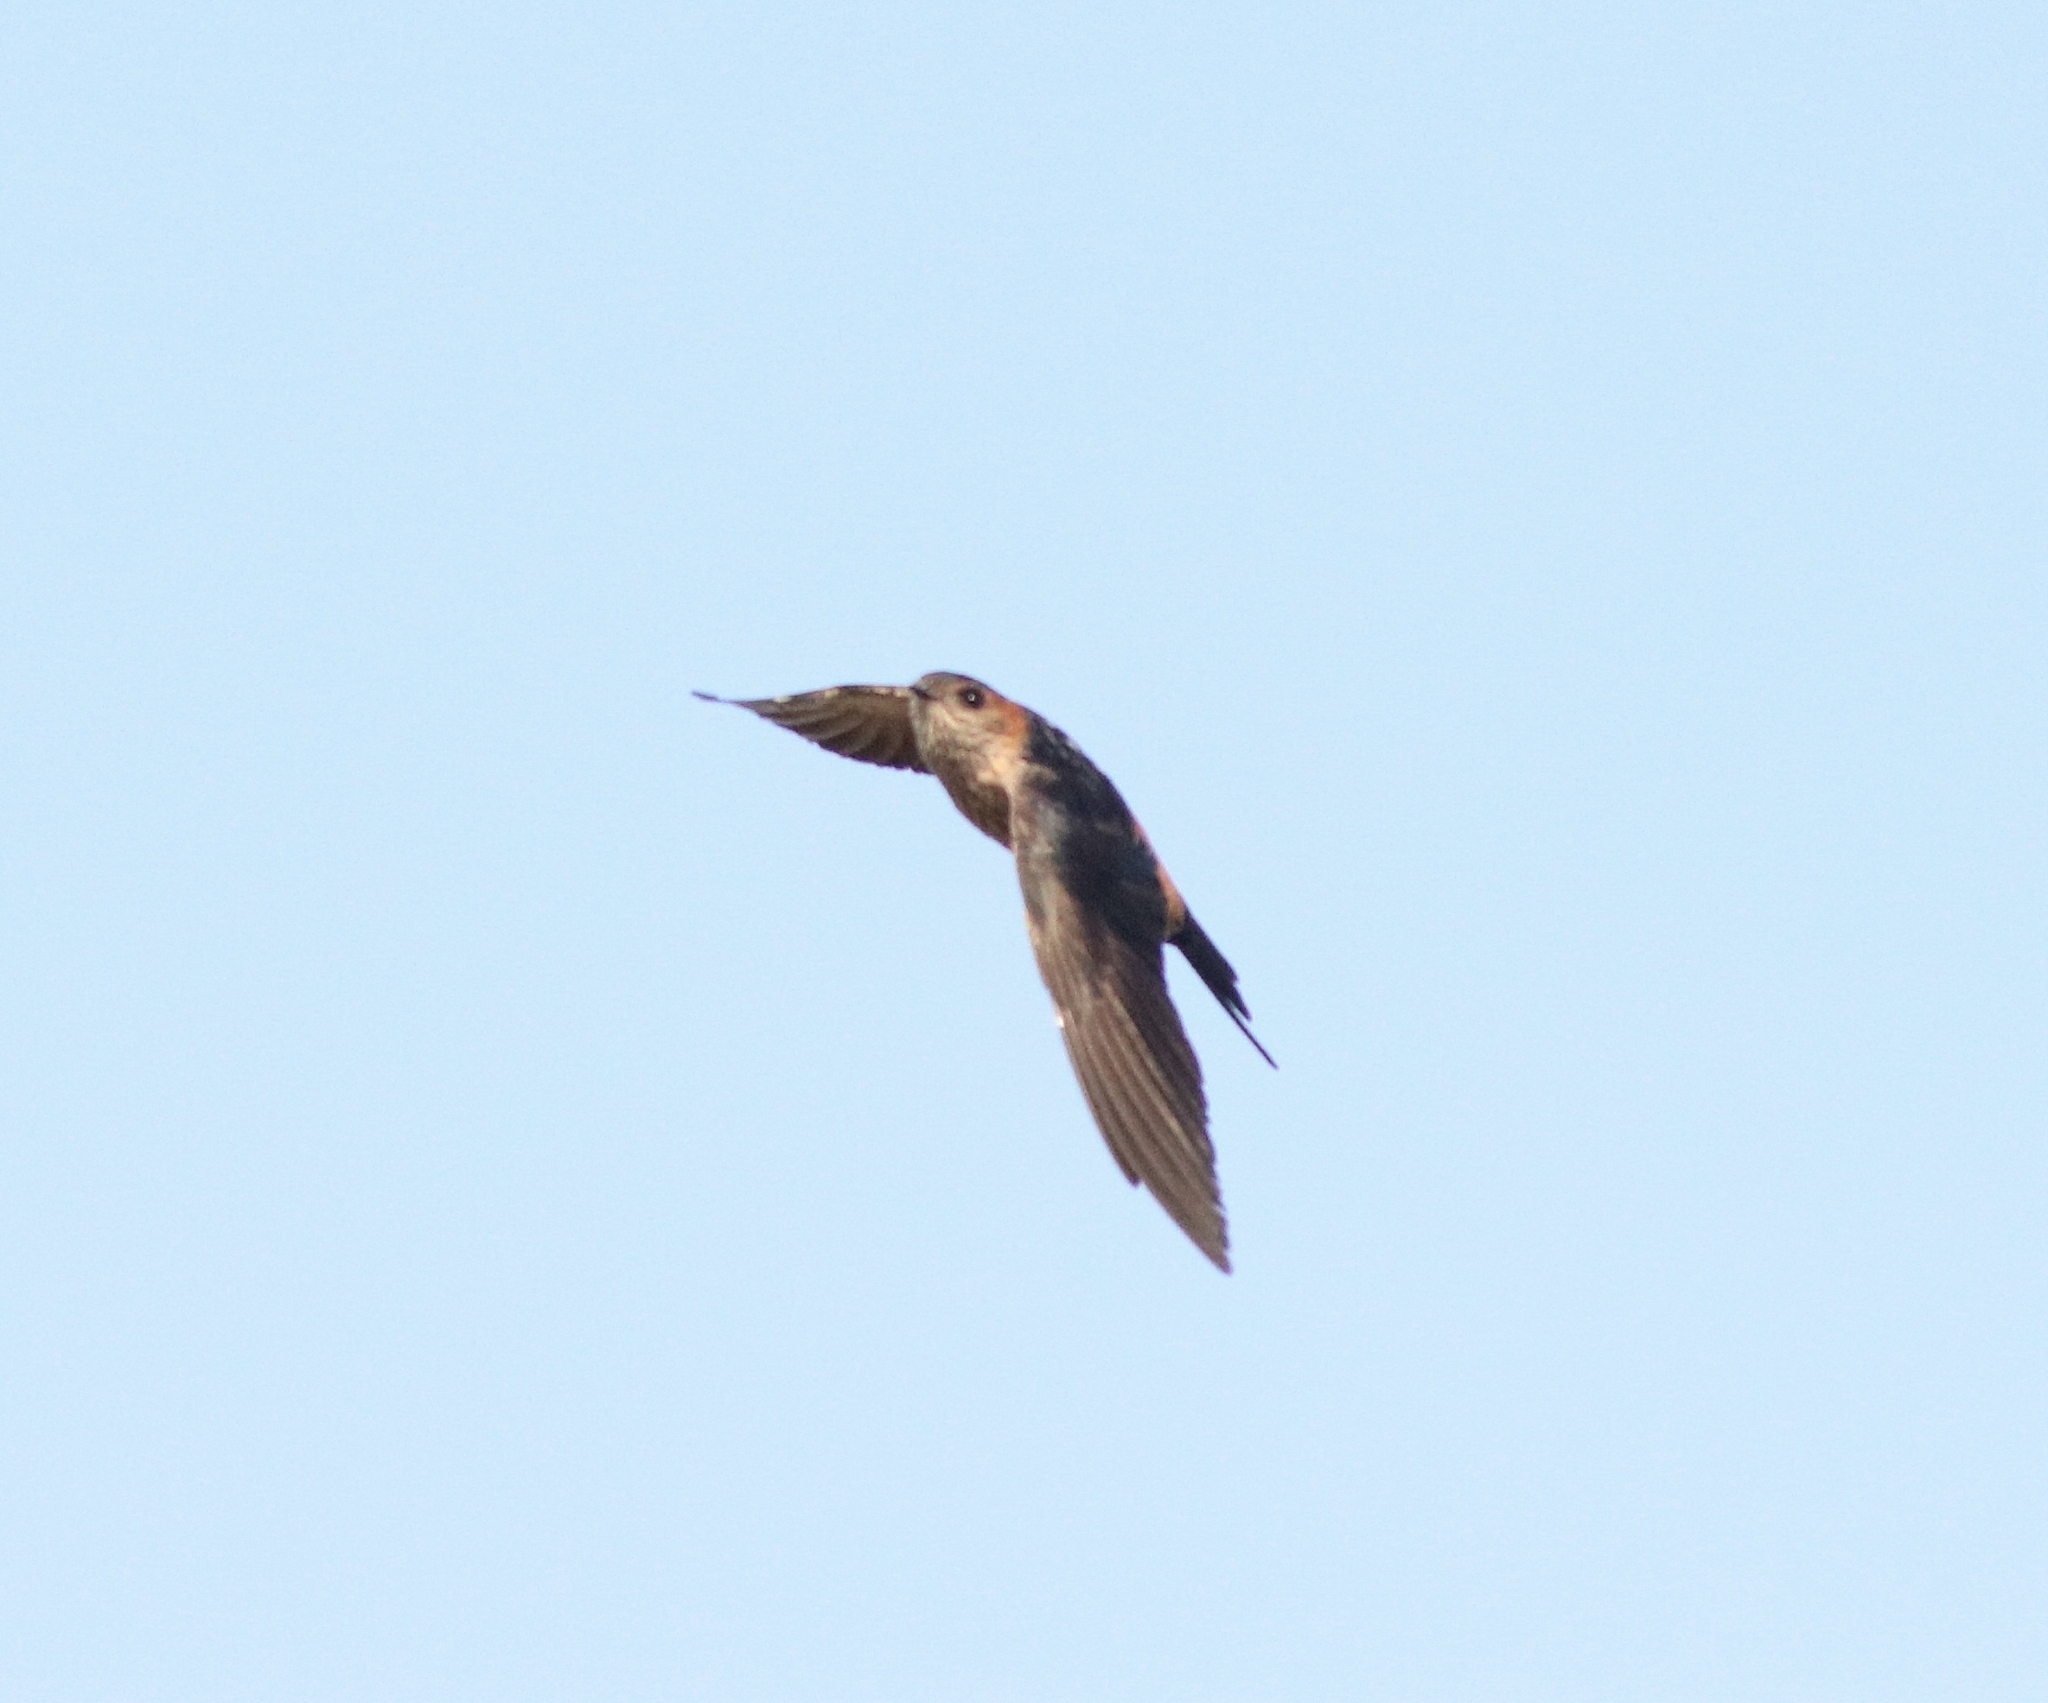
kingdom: Animalia
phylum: Chordata
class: Aves
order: Passeriformes
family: Hirundinidae
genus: Cecropis
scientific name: Cecropis daurica
